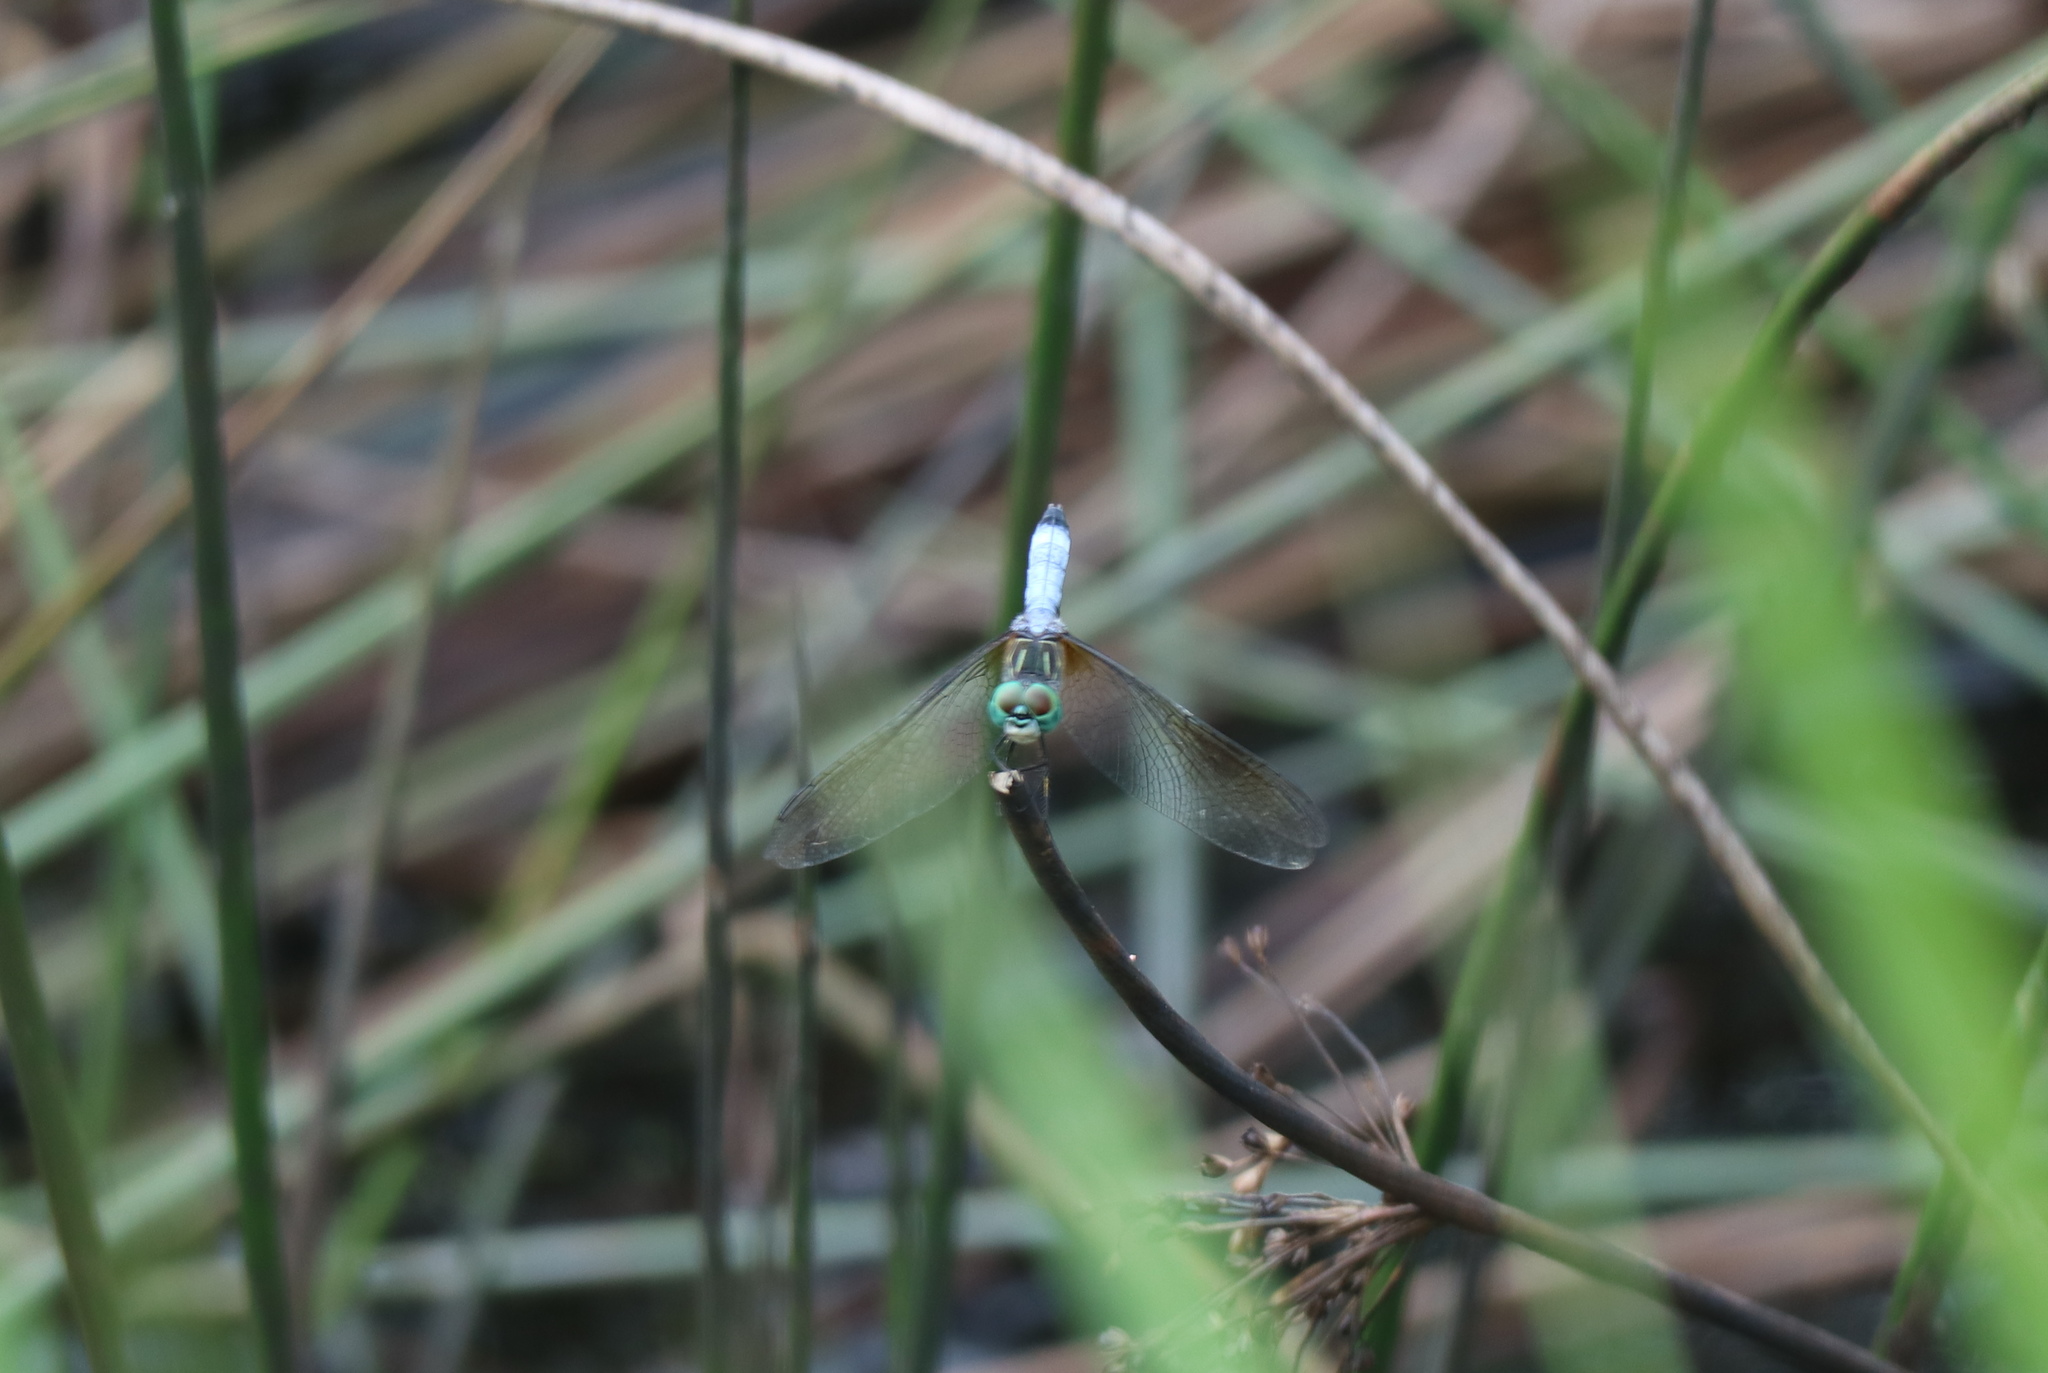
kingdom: Animalia
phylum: Arthropoda
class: Insecta
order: Odonata
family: Libellulidae
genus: Pachydiplax
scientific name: Pachydiplax longipennis
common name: Blue dasher
